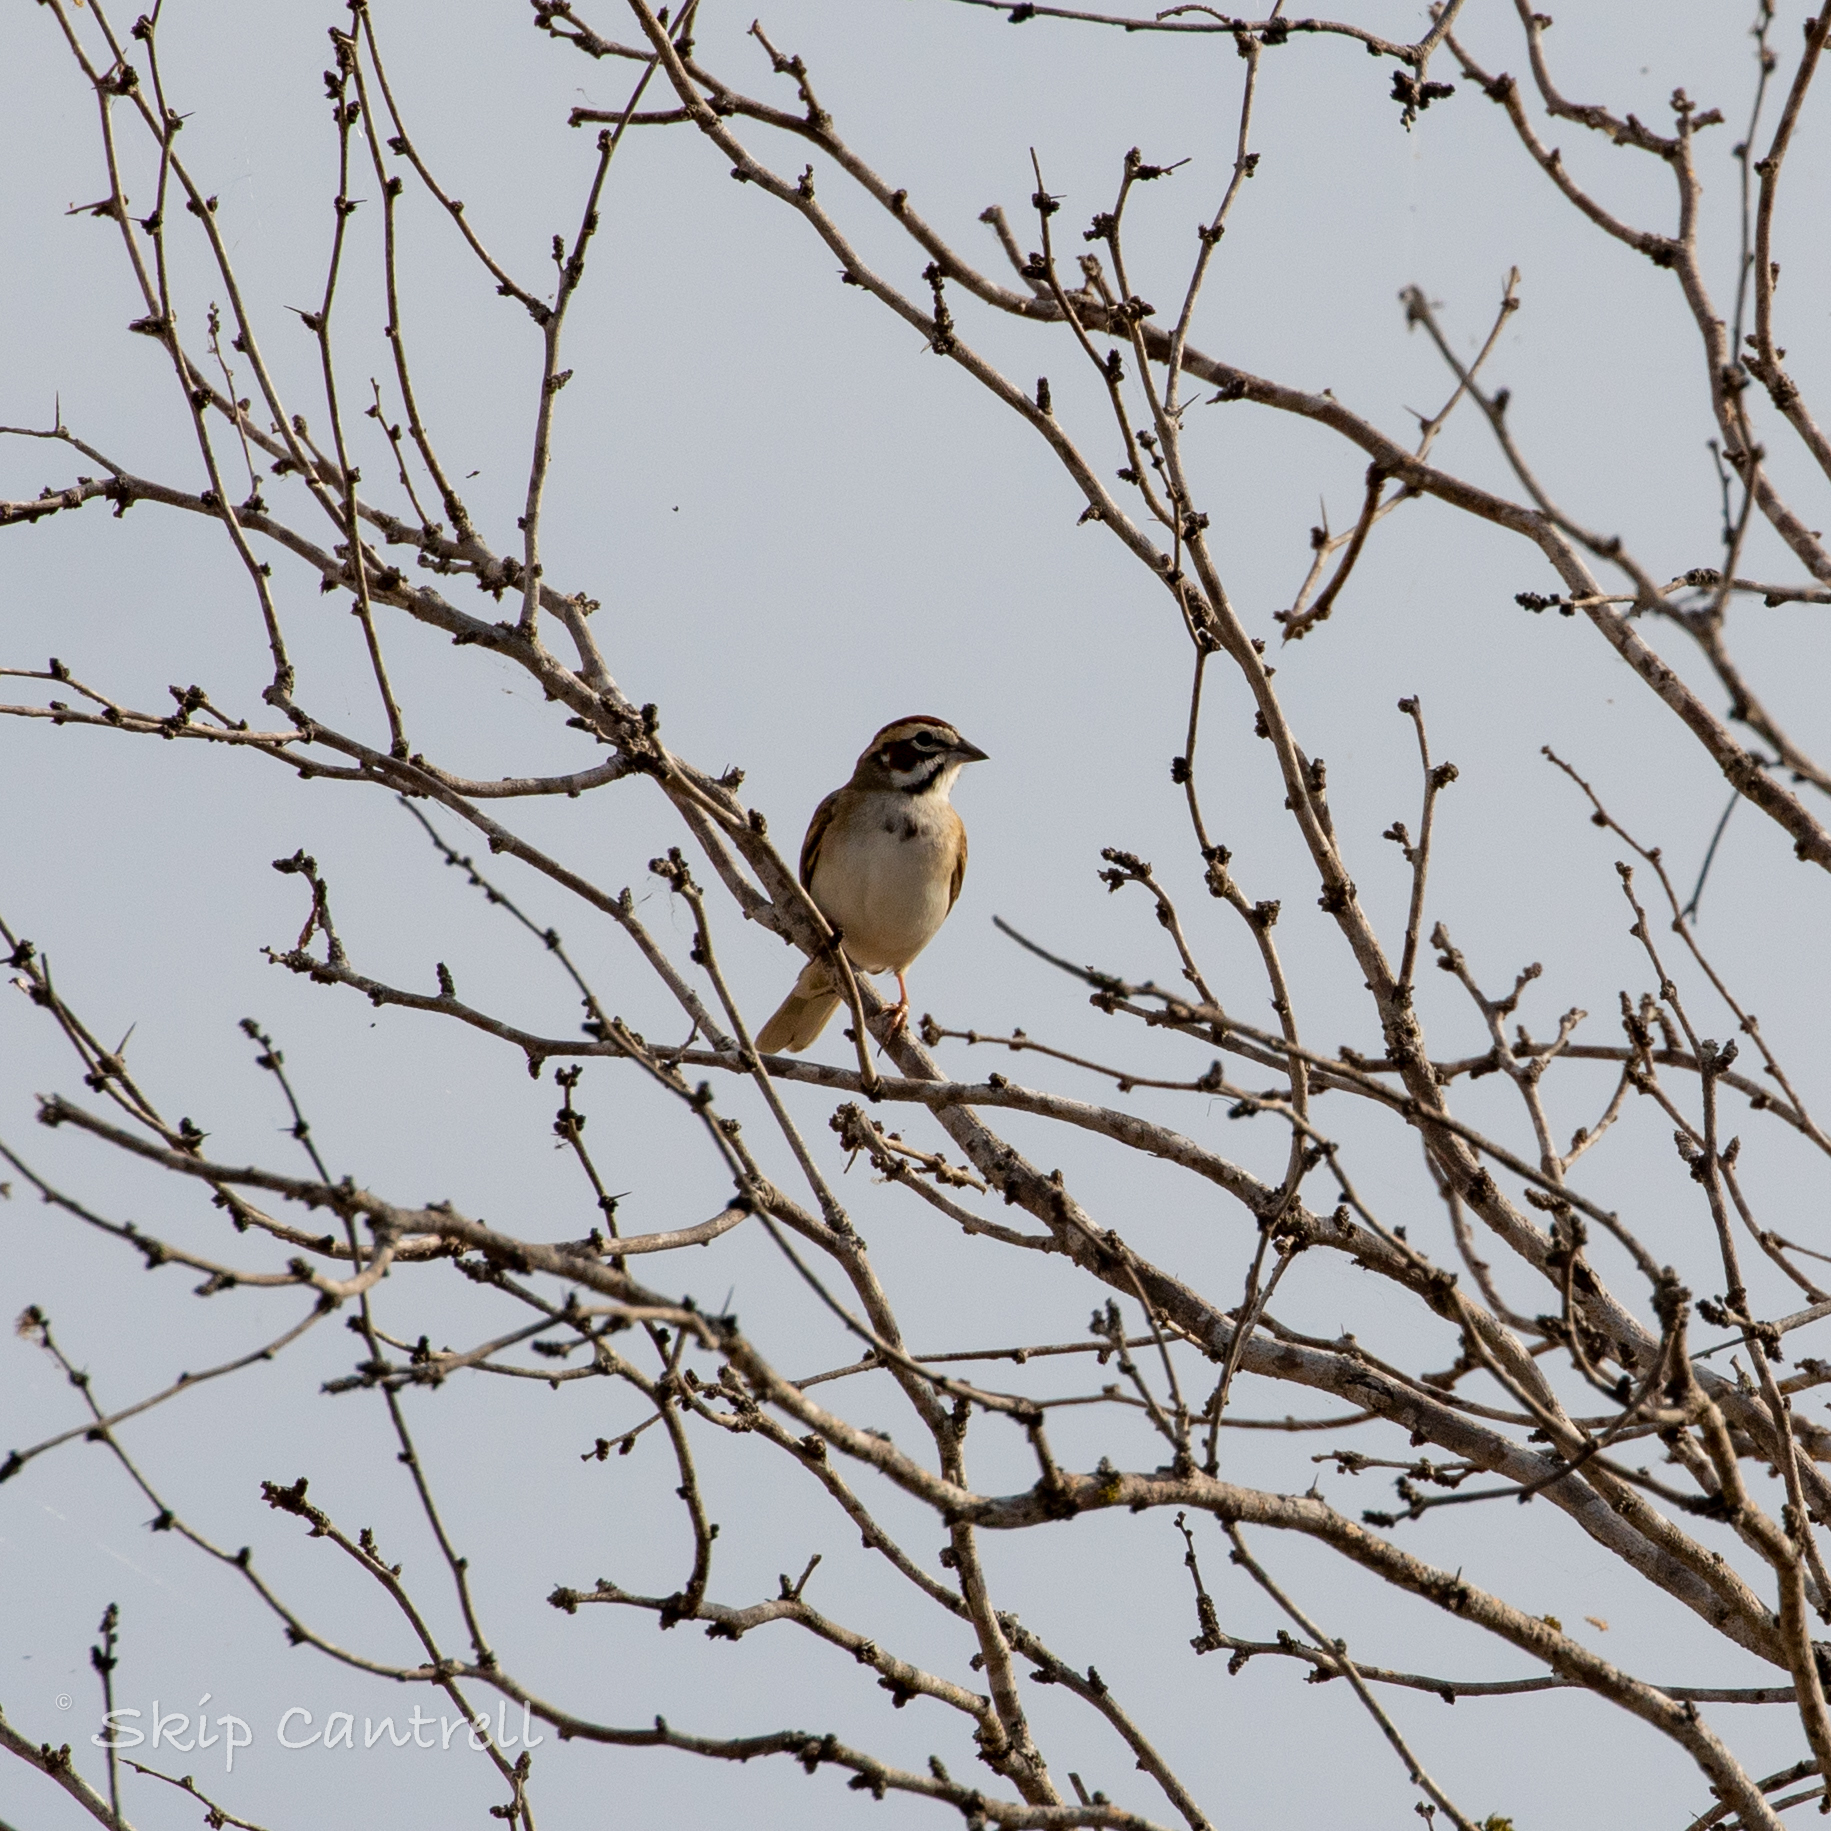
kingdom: Animalia
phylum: Chordata
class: Aves
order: Passeriformes
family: Passerellidae
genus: Chondestes
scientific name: Chondestes grammacus
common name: Lark sparrow
